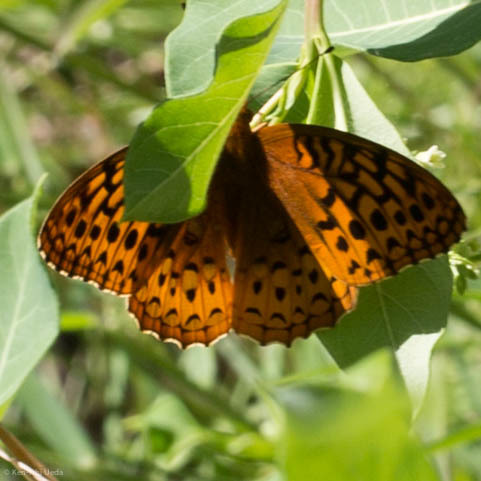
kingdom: Animalia
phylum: Arthropoda
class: Insecta
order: Lepidoptera
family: Nymphalidae
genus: Speyeria
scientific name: Speyeria cybele
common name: Great spangled fritillary
